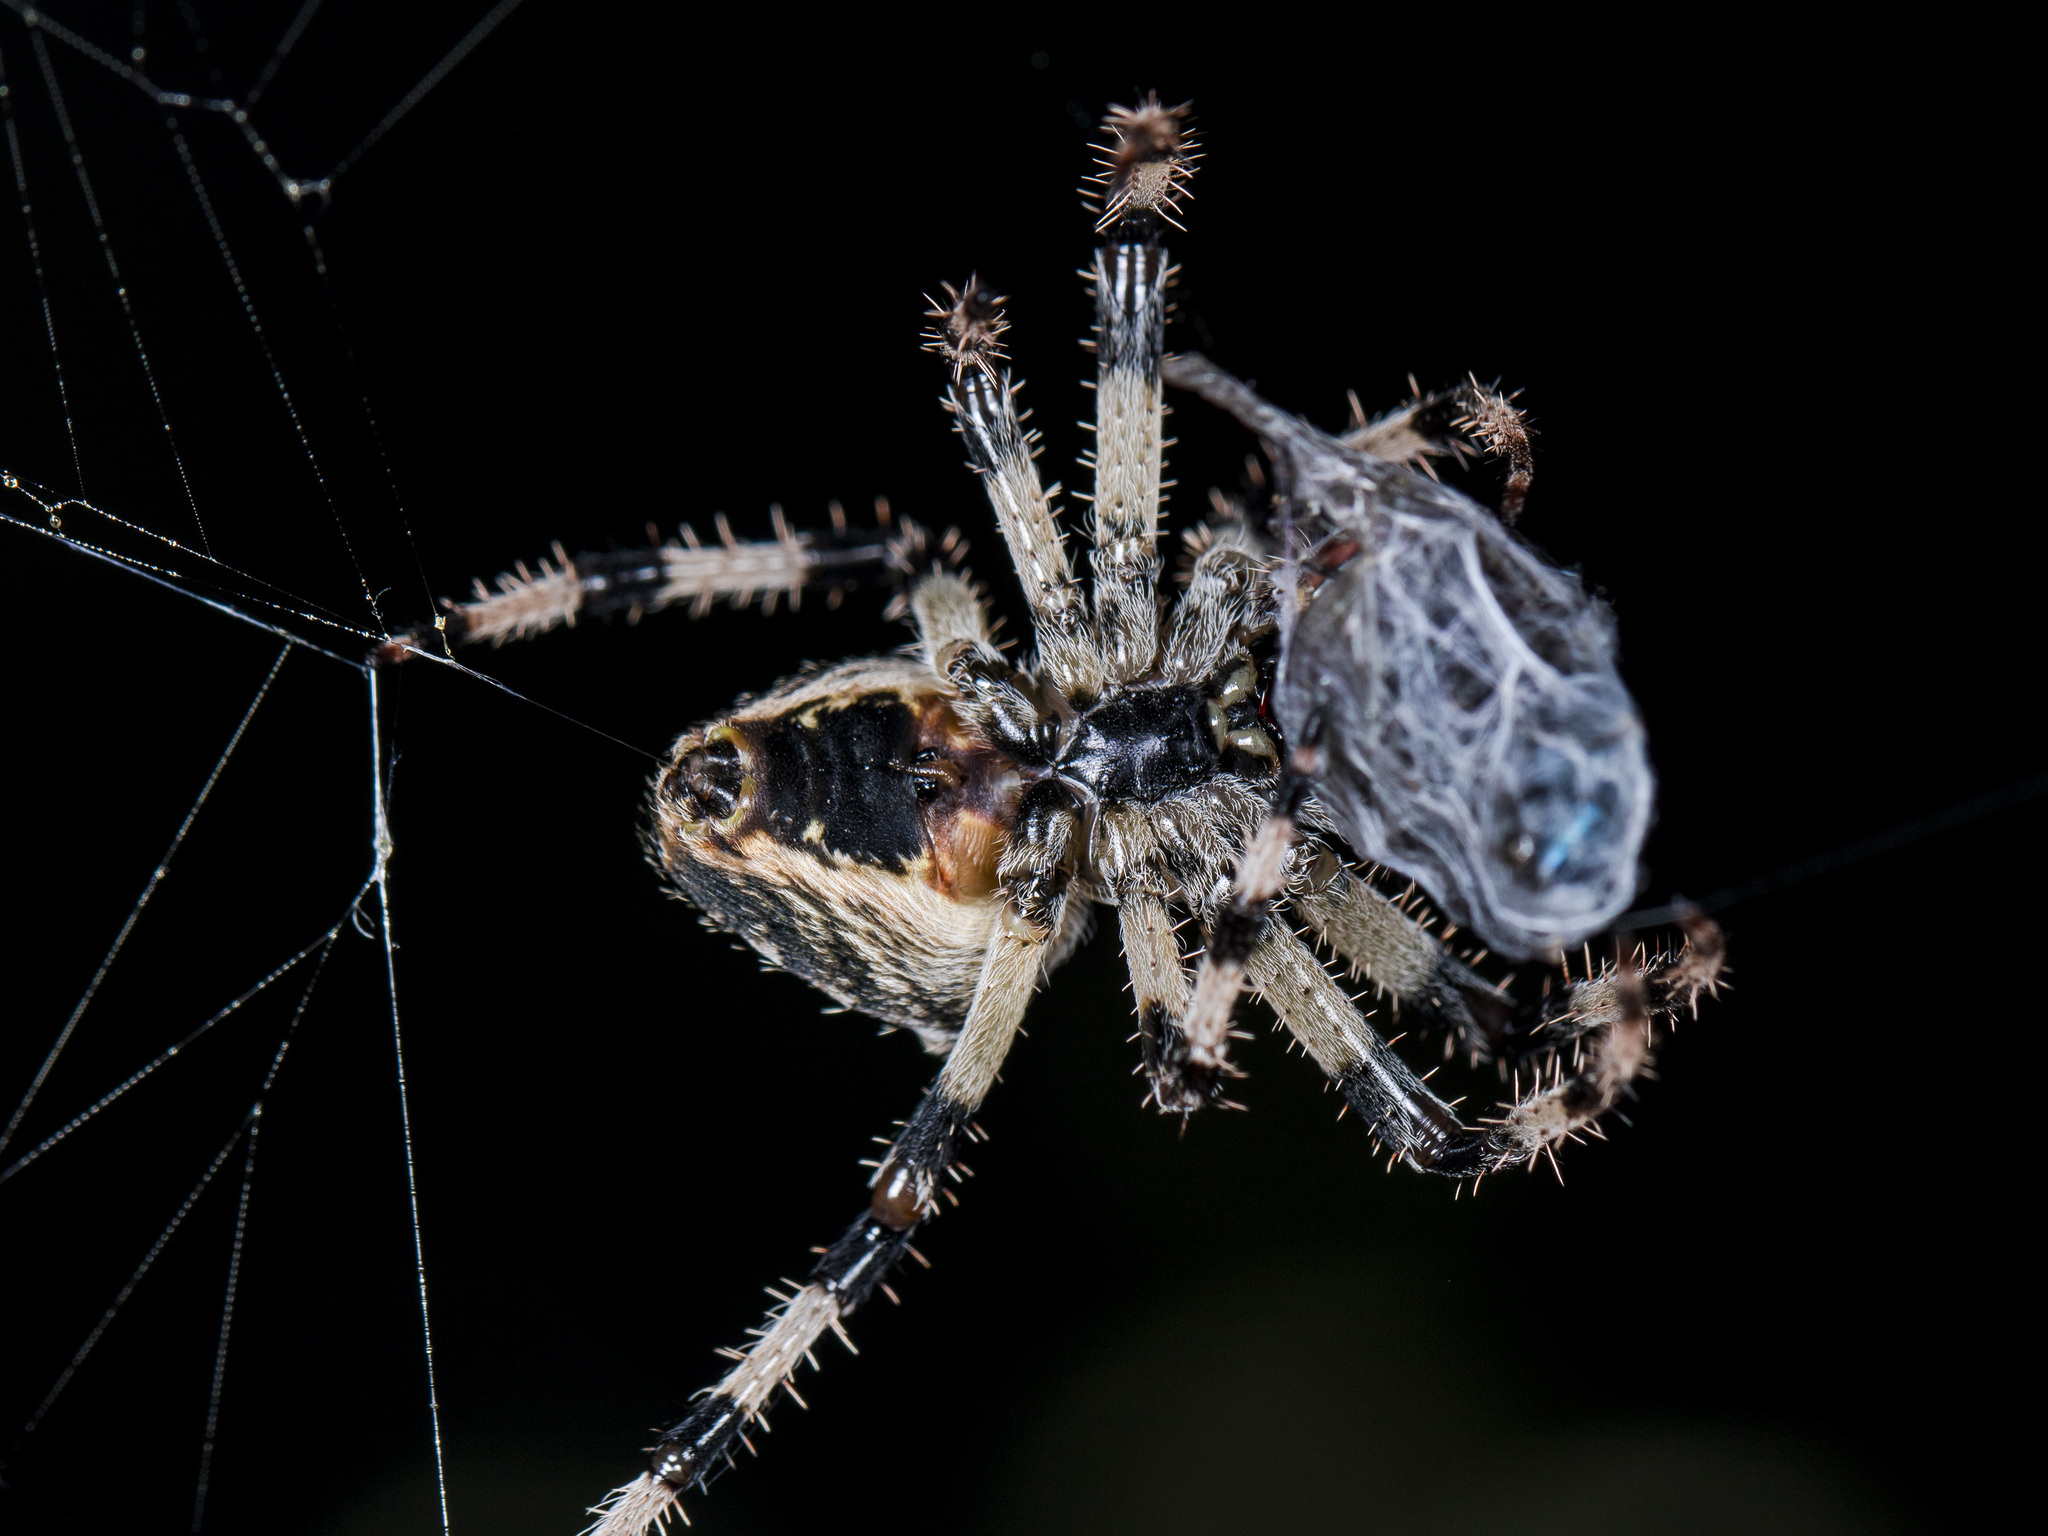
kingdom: Animalia
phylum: Arthropoda
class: Arachnida
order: Araneae
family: Araneidae
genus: Araneus
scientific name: Araneus tartaricus
